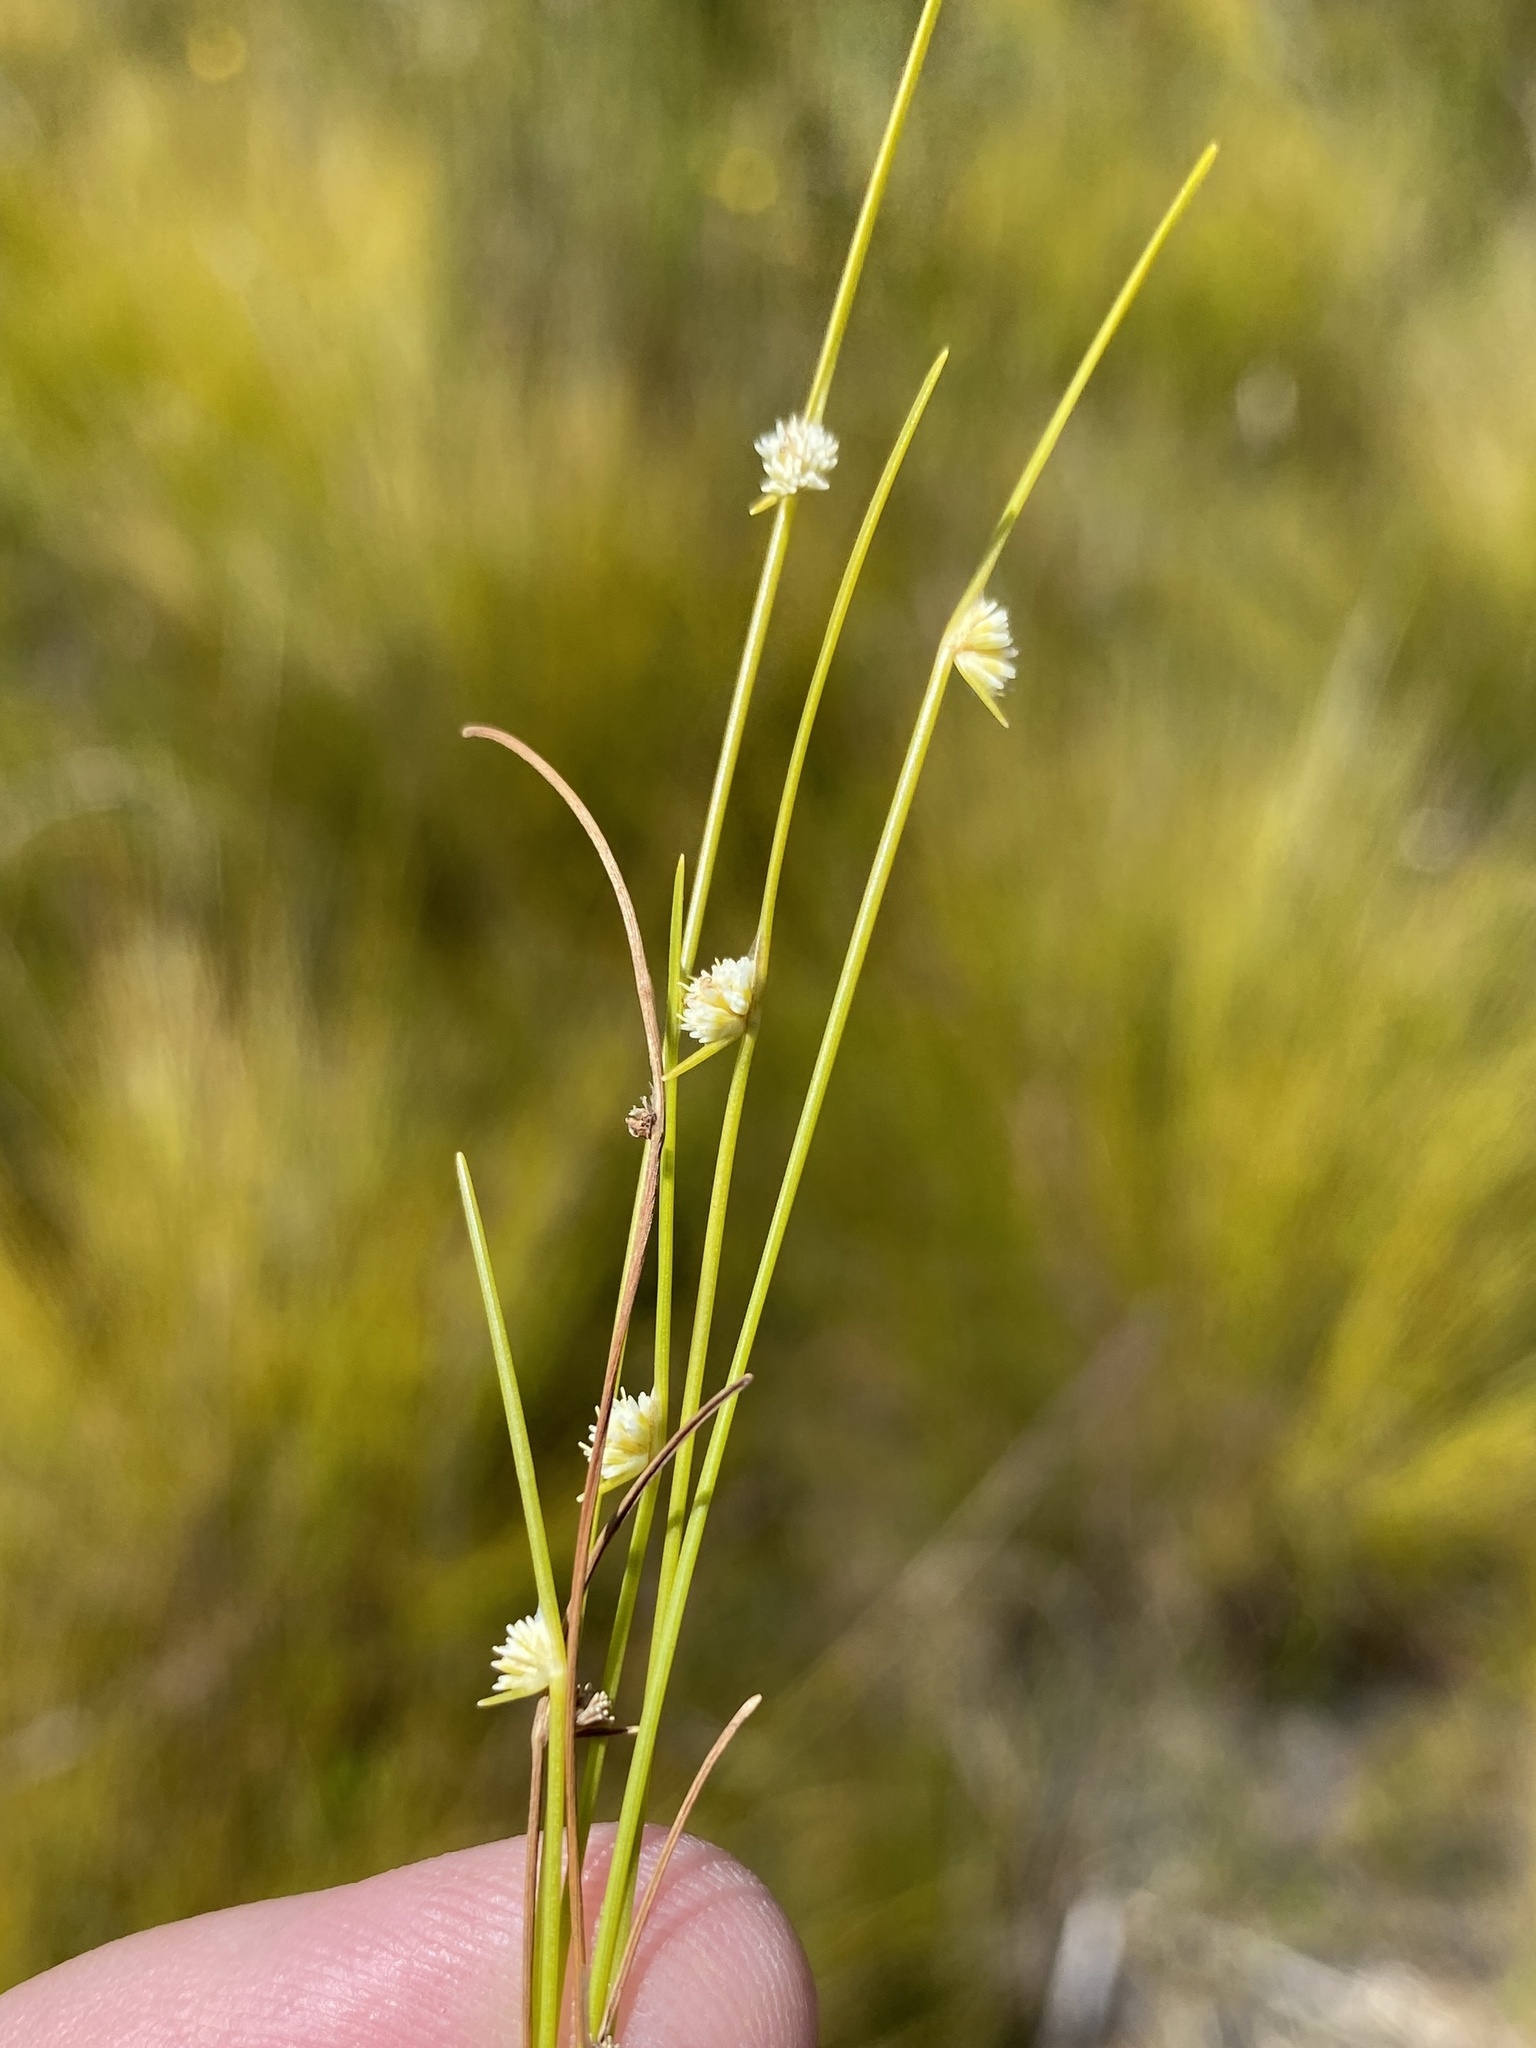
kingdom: Plantae
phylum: Tracheophyta
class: Liliopsida
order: Poales
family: Cyperaceae
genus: Ficinia
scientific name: Ficinia minutiflora
